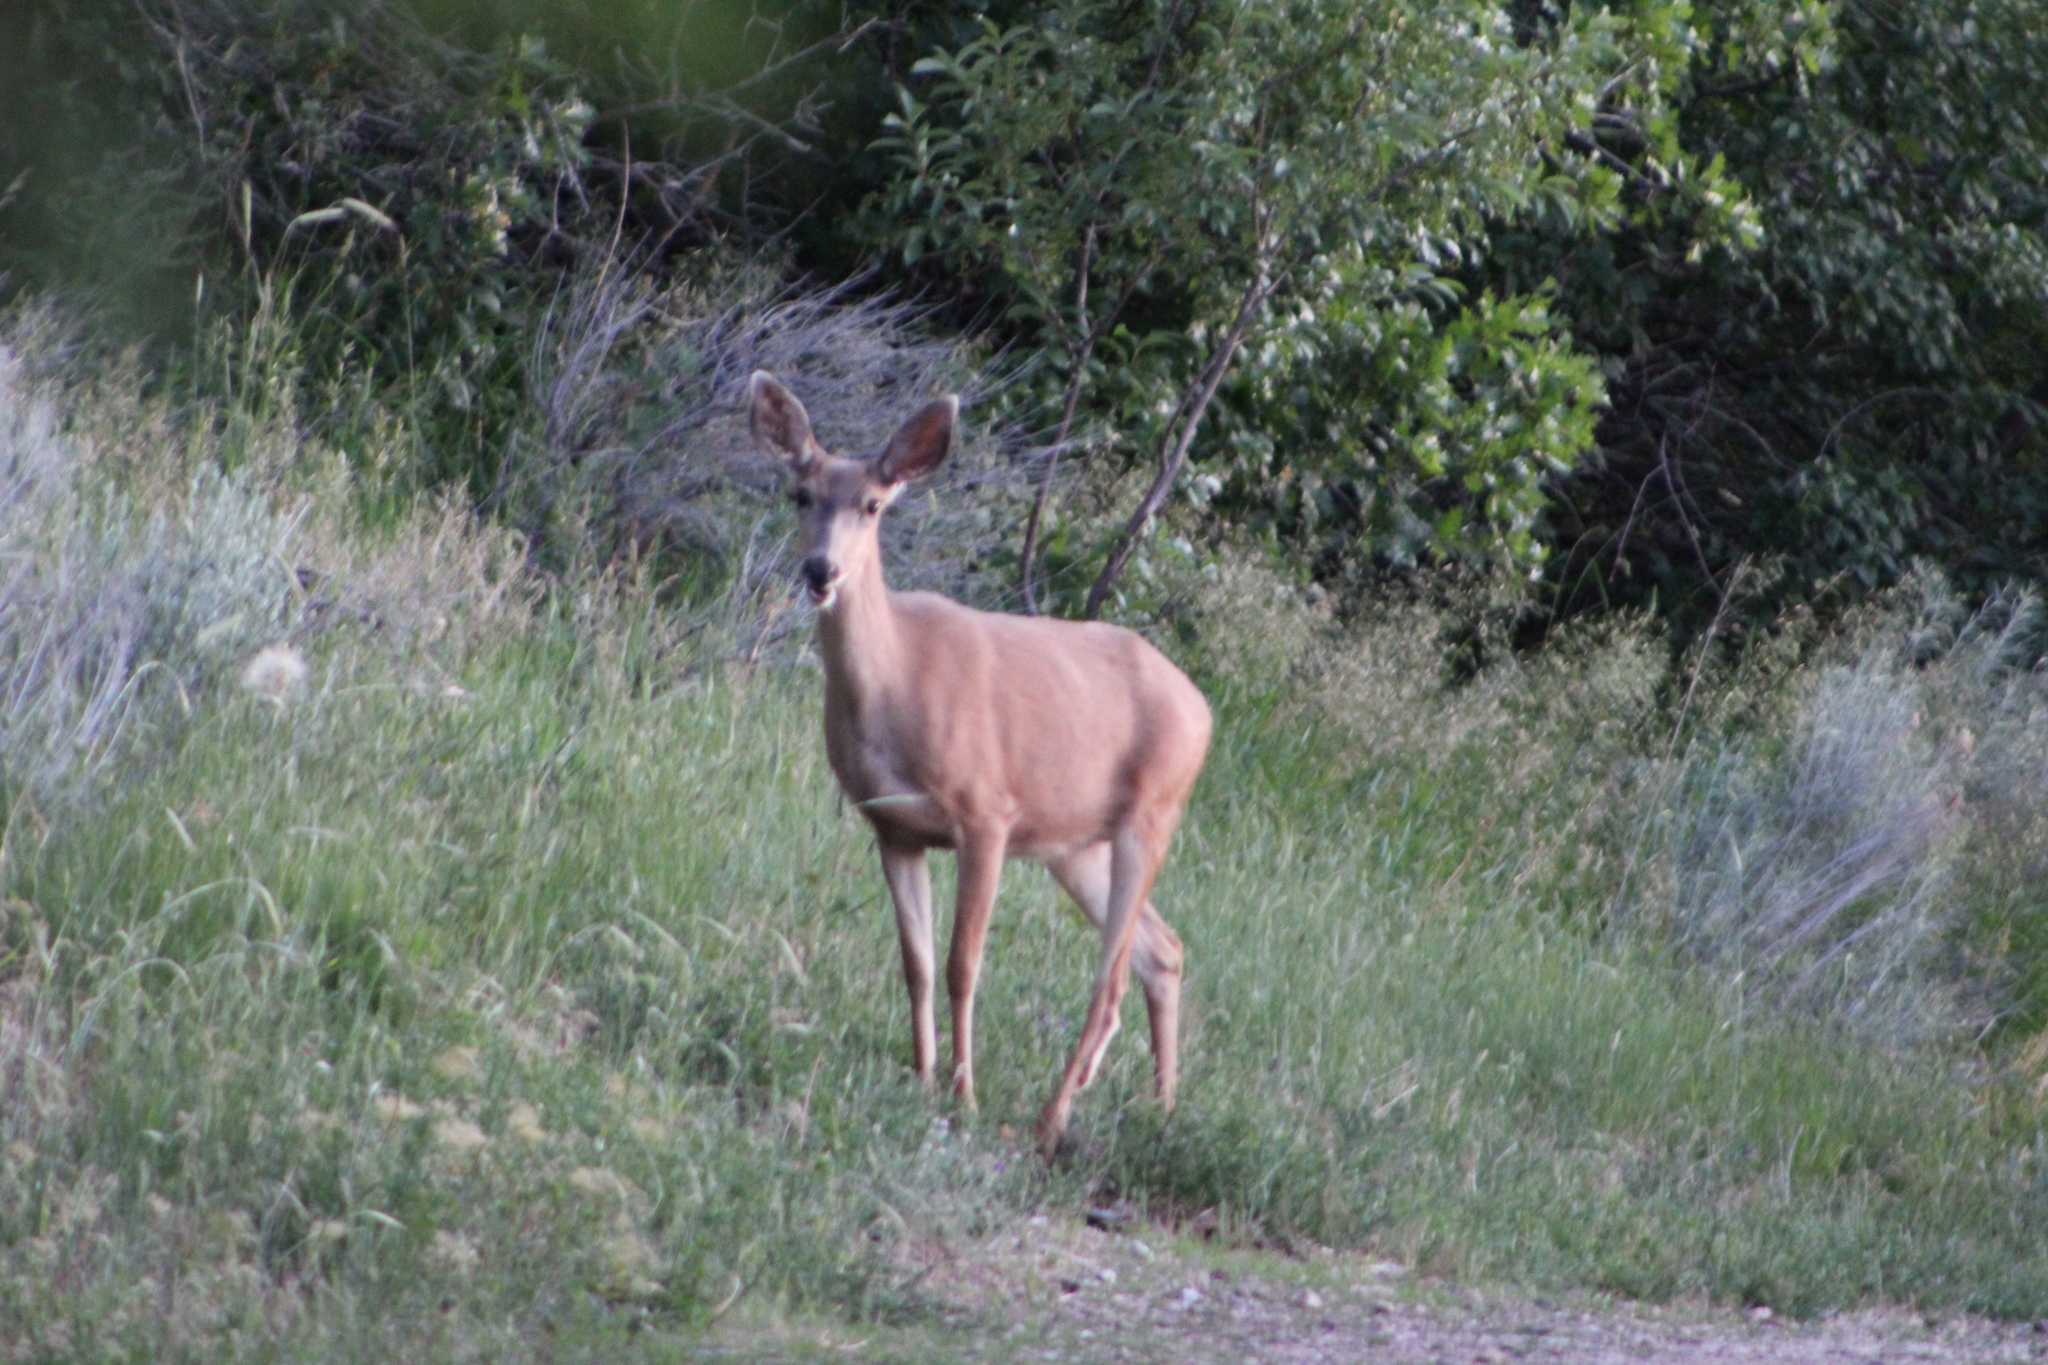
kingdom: Animalia
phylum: Chordata
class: Mammalia
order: Artiodactyla
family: Cervidae
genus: Odocoileus
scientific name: Odocoileus hemionus
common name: Mule deer
